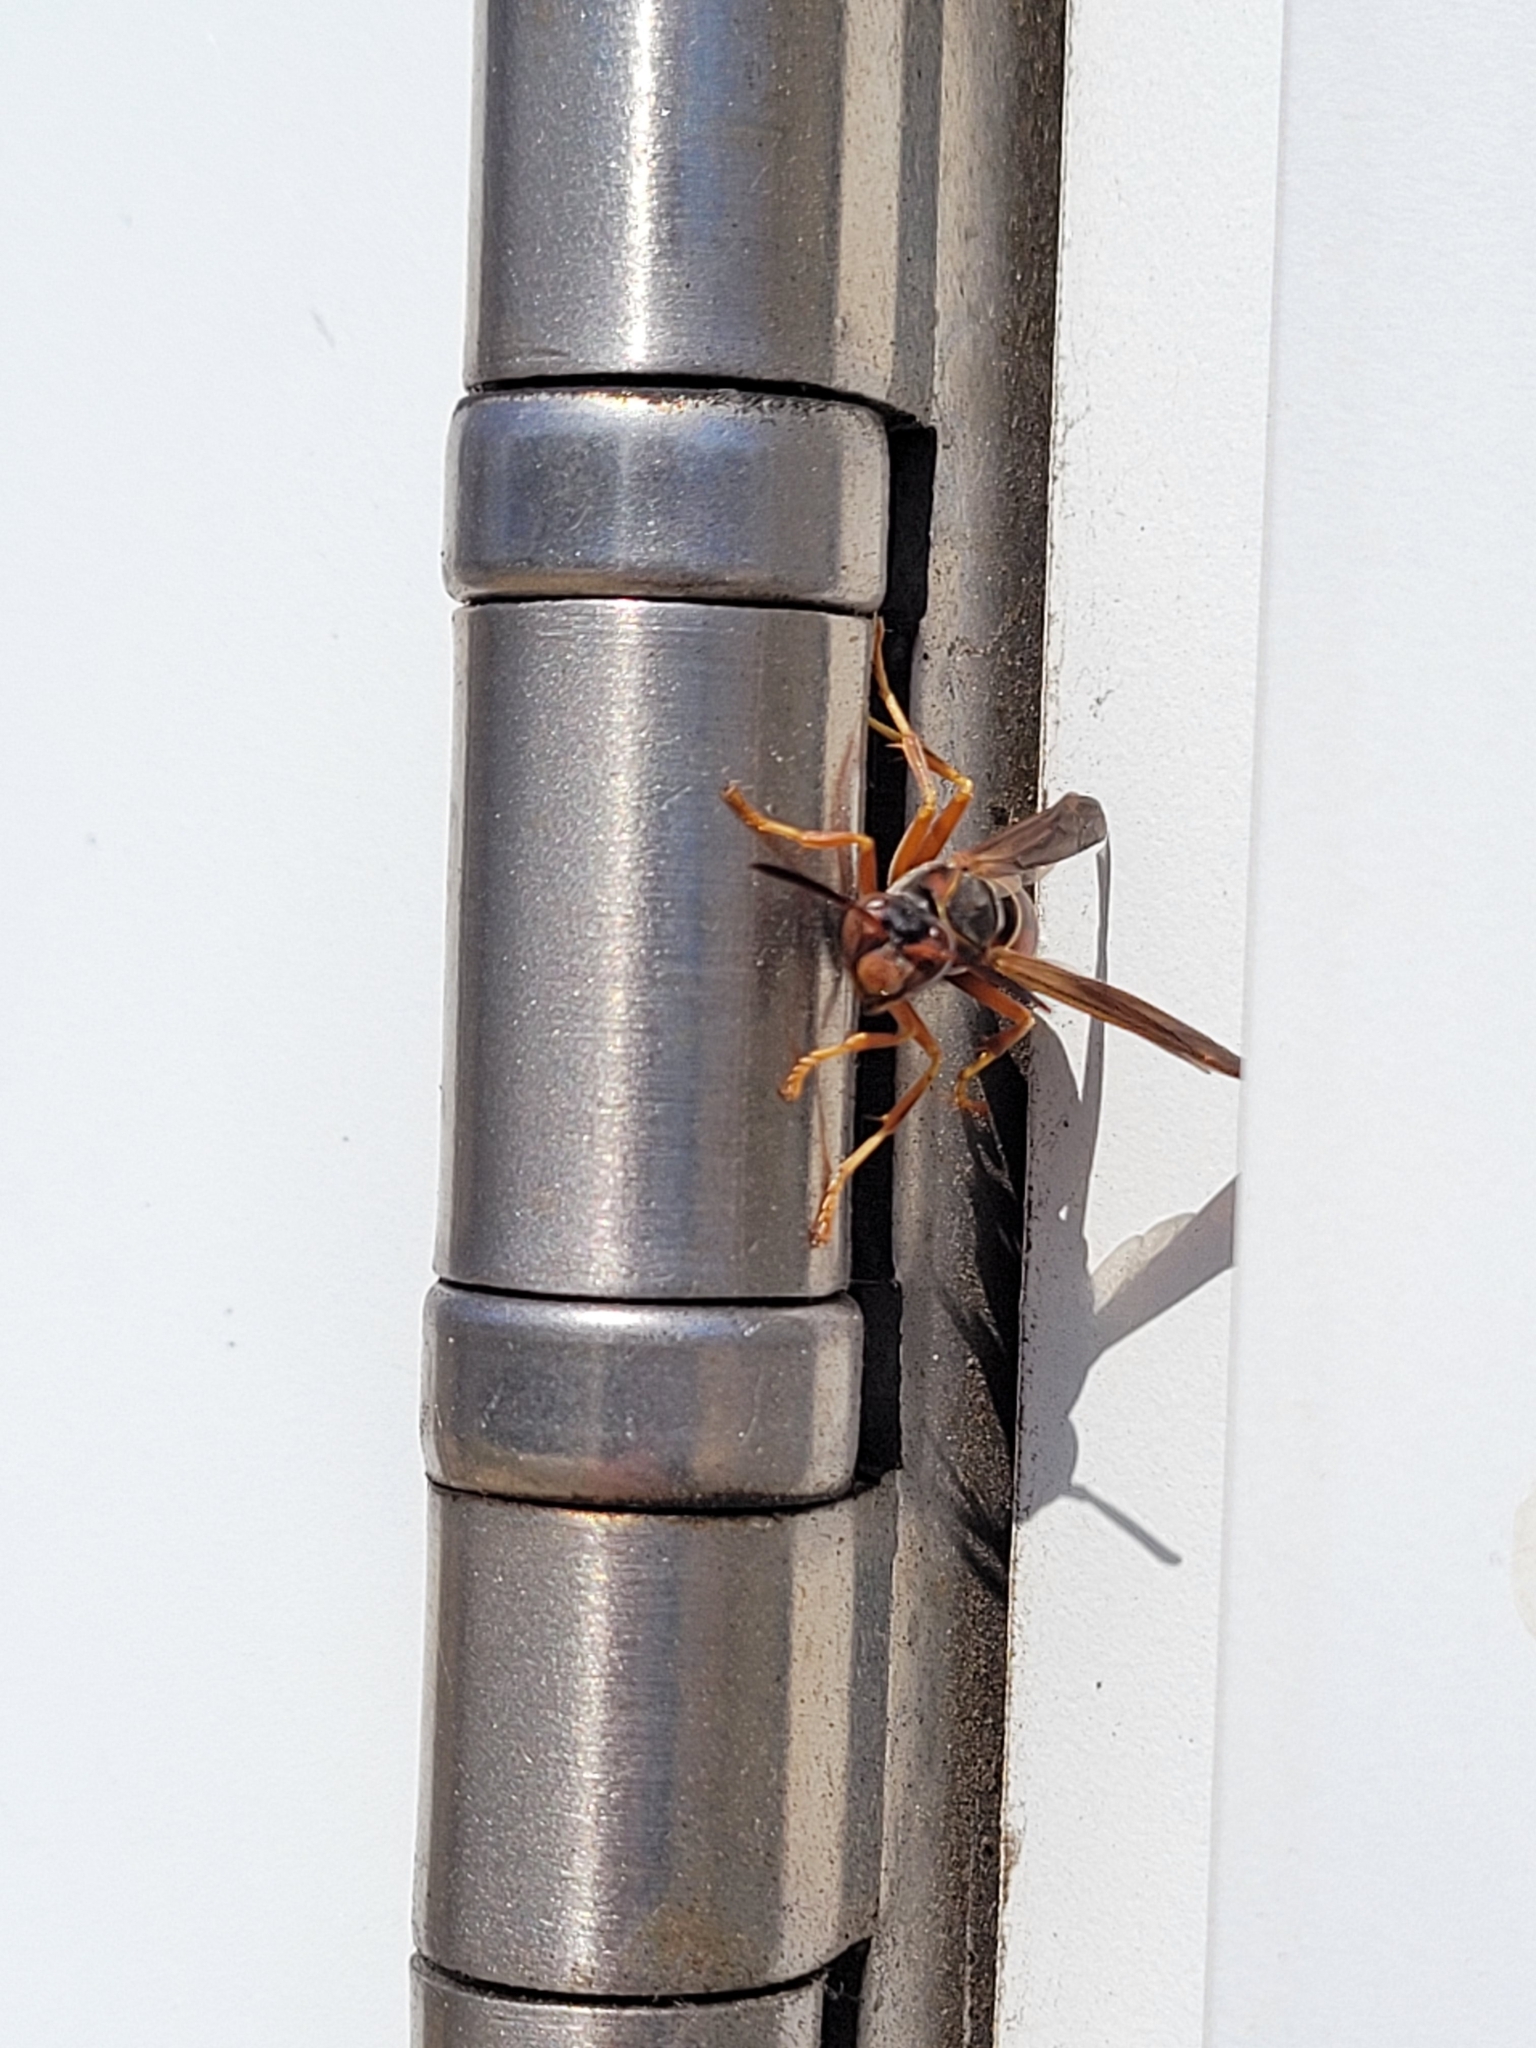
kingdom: Animalia
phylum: Arthropoda
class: Insecta
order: Hymenoptera
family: Eumenidae
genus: Polistes
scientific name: Polistes fuscatus
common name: Dark paper wasp
